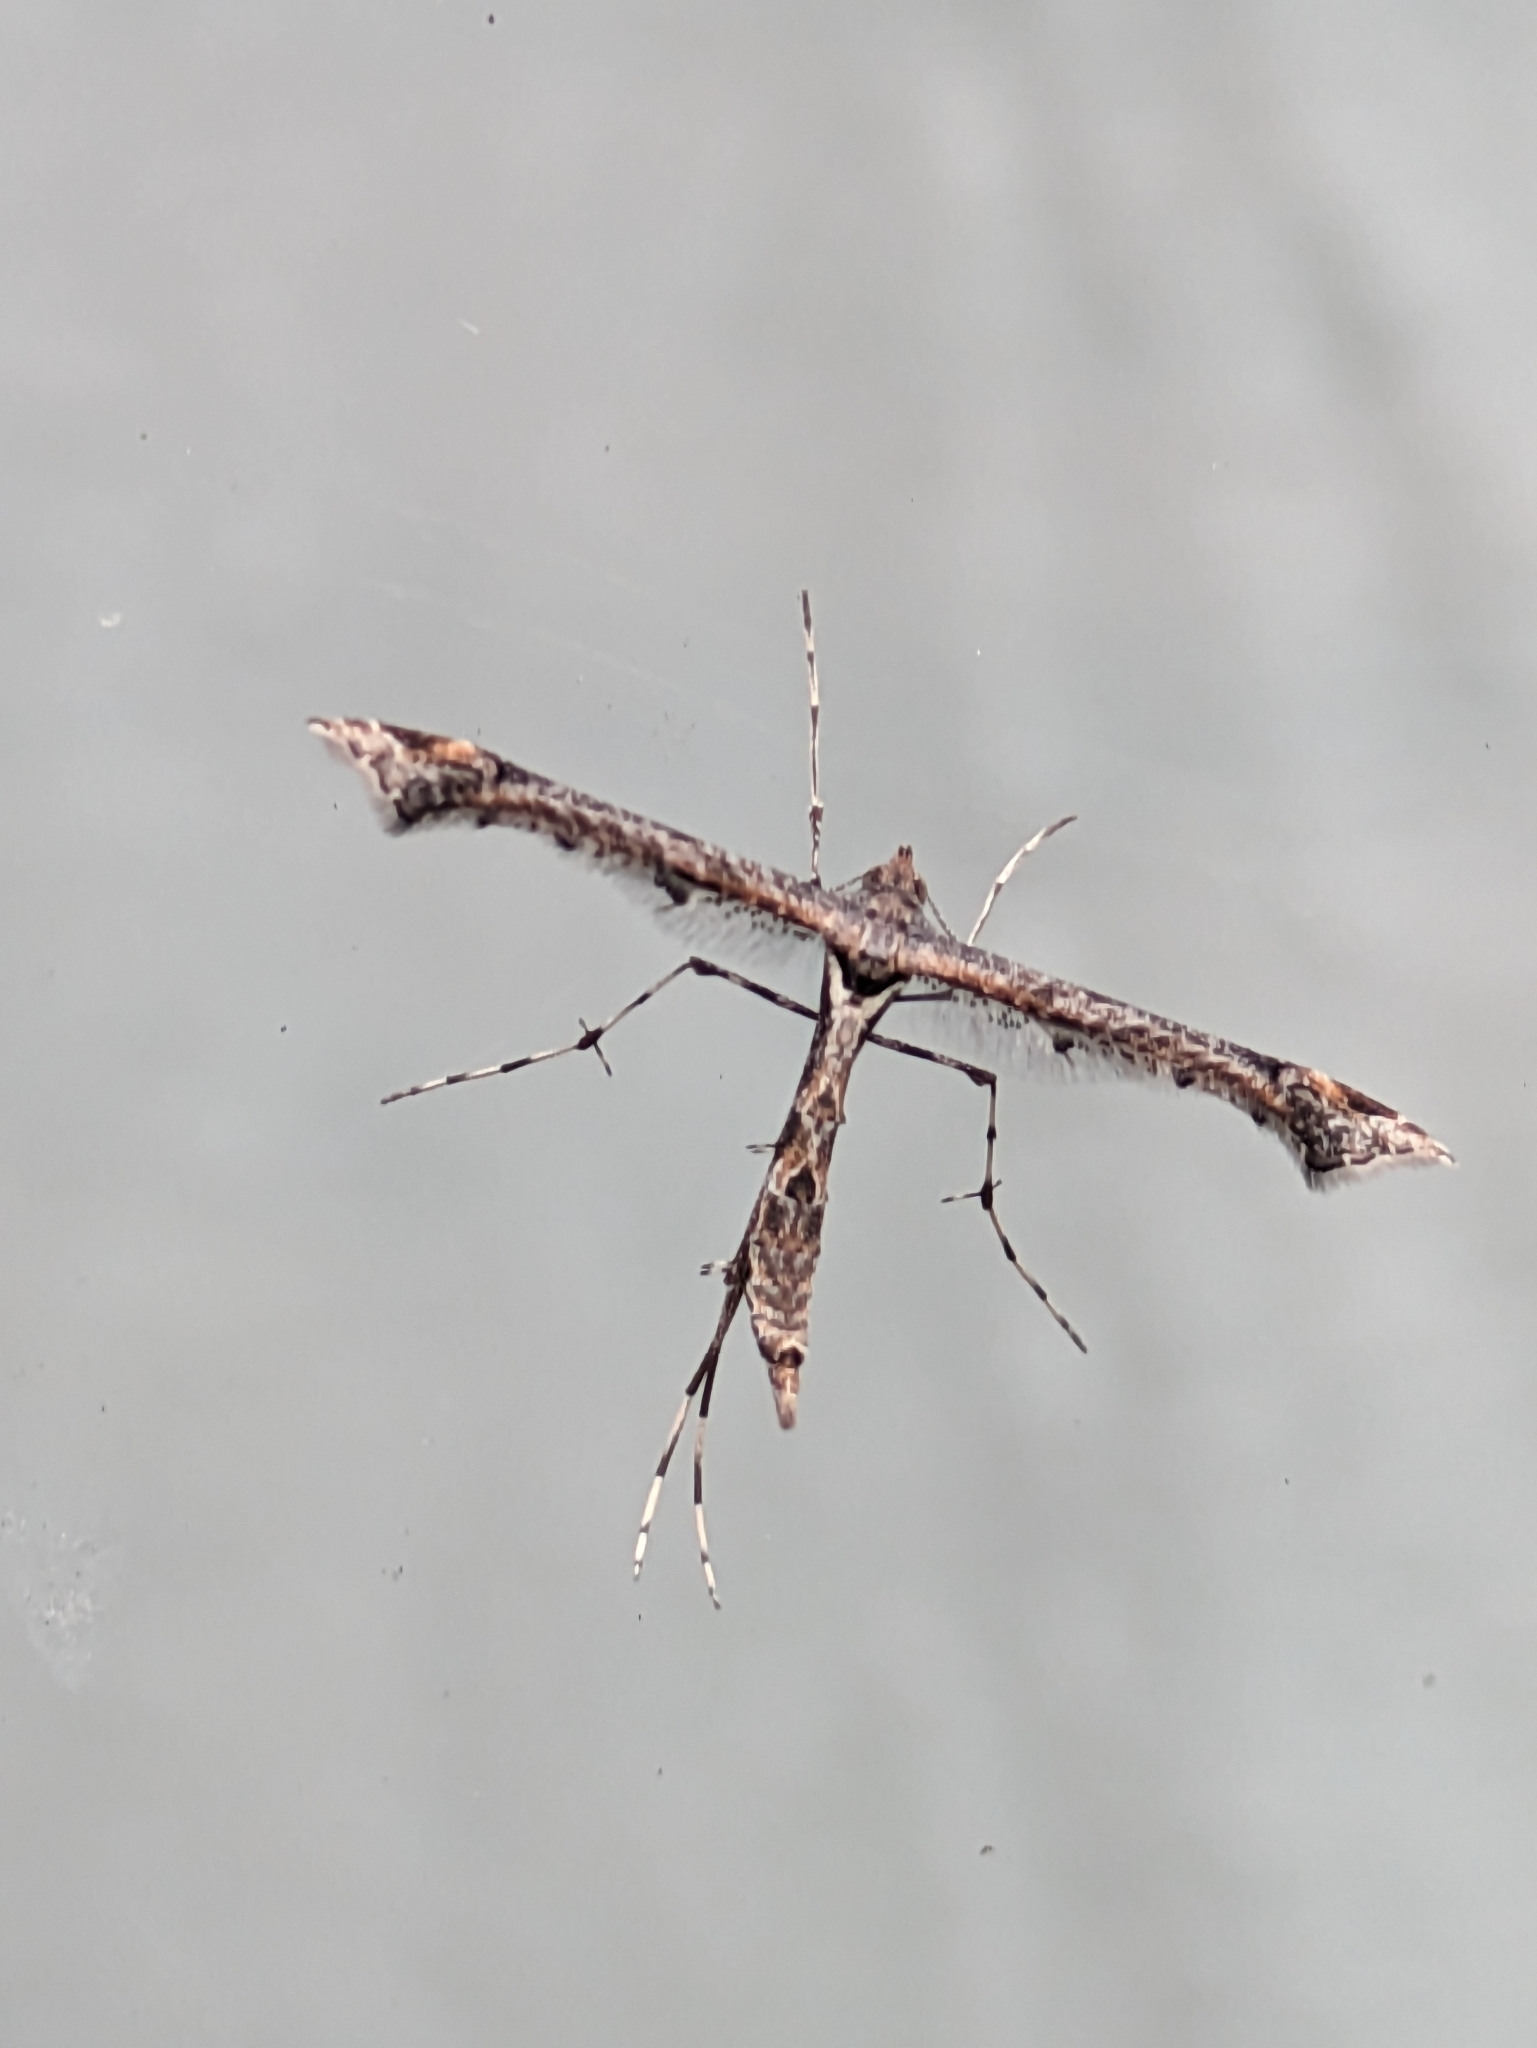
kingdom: Animalia
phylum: Arthropoda
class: Insecta
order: Lepidoptera
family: Pterophoridae
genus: Anstenoptilia
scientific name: Anstenoptilia marmarodactyla
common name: Moth
